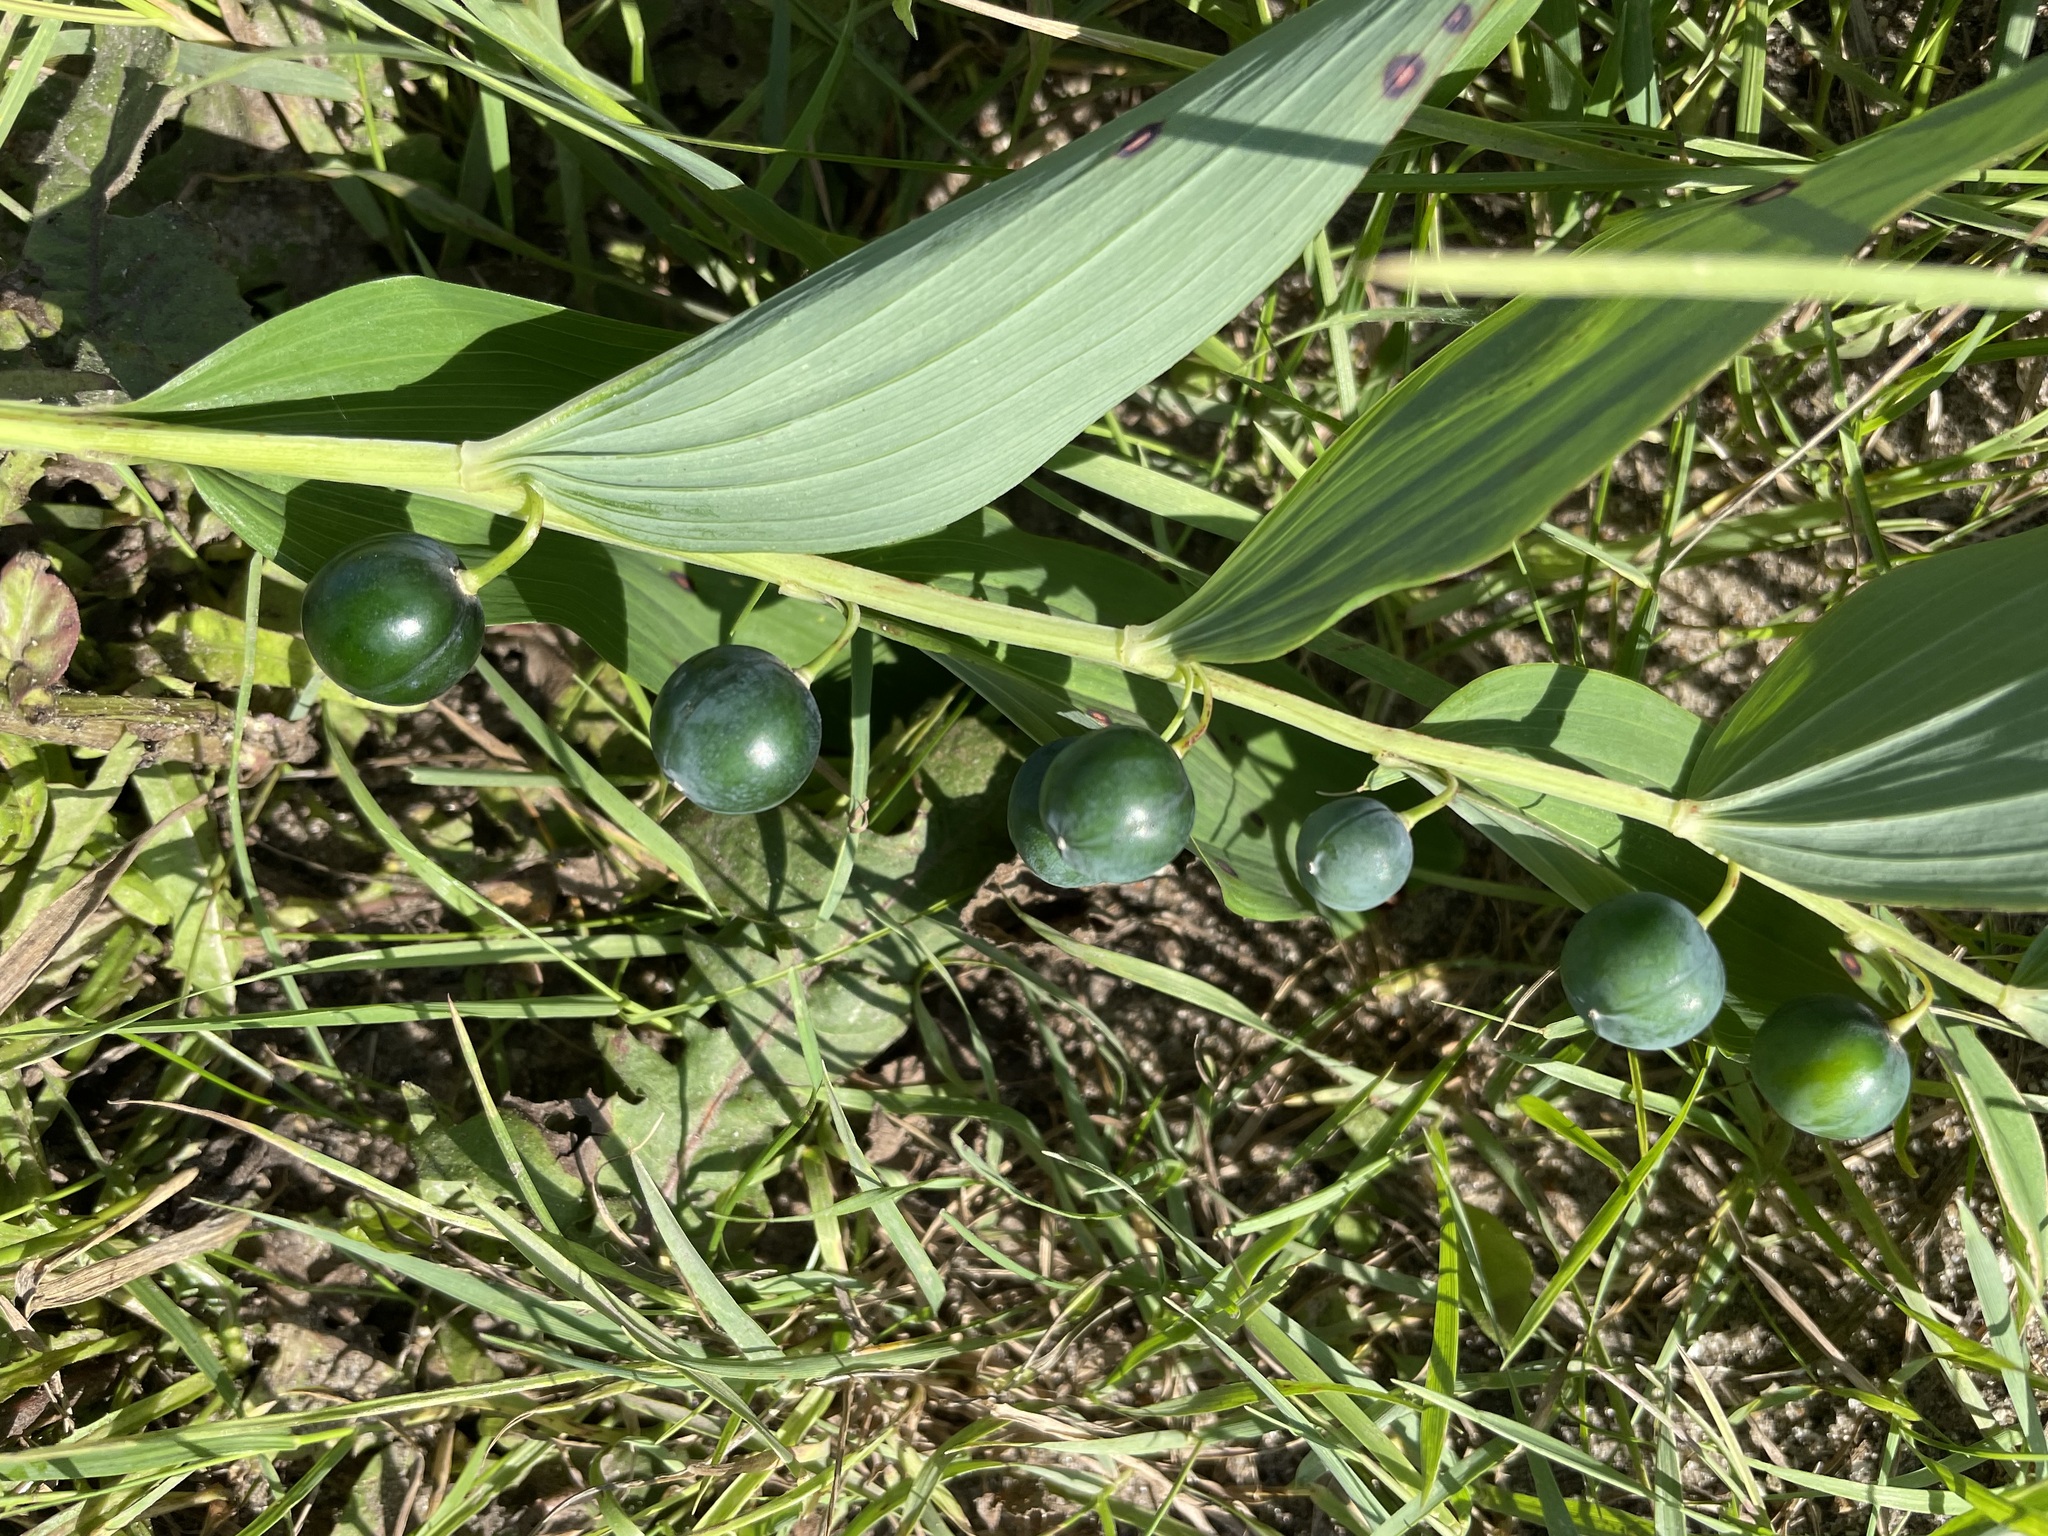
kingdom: Plantae
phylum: Tracheophyta
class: Liliopsida
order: Asparagales
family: Asparagaceae
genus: Polygonatum
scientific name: Polygonatum odoratum
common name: Angular solomon's-seal
